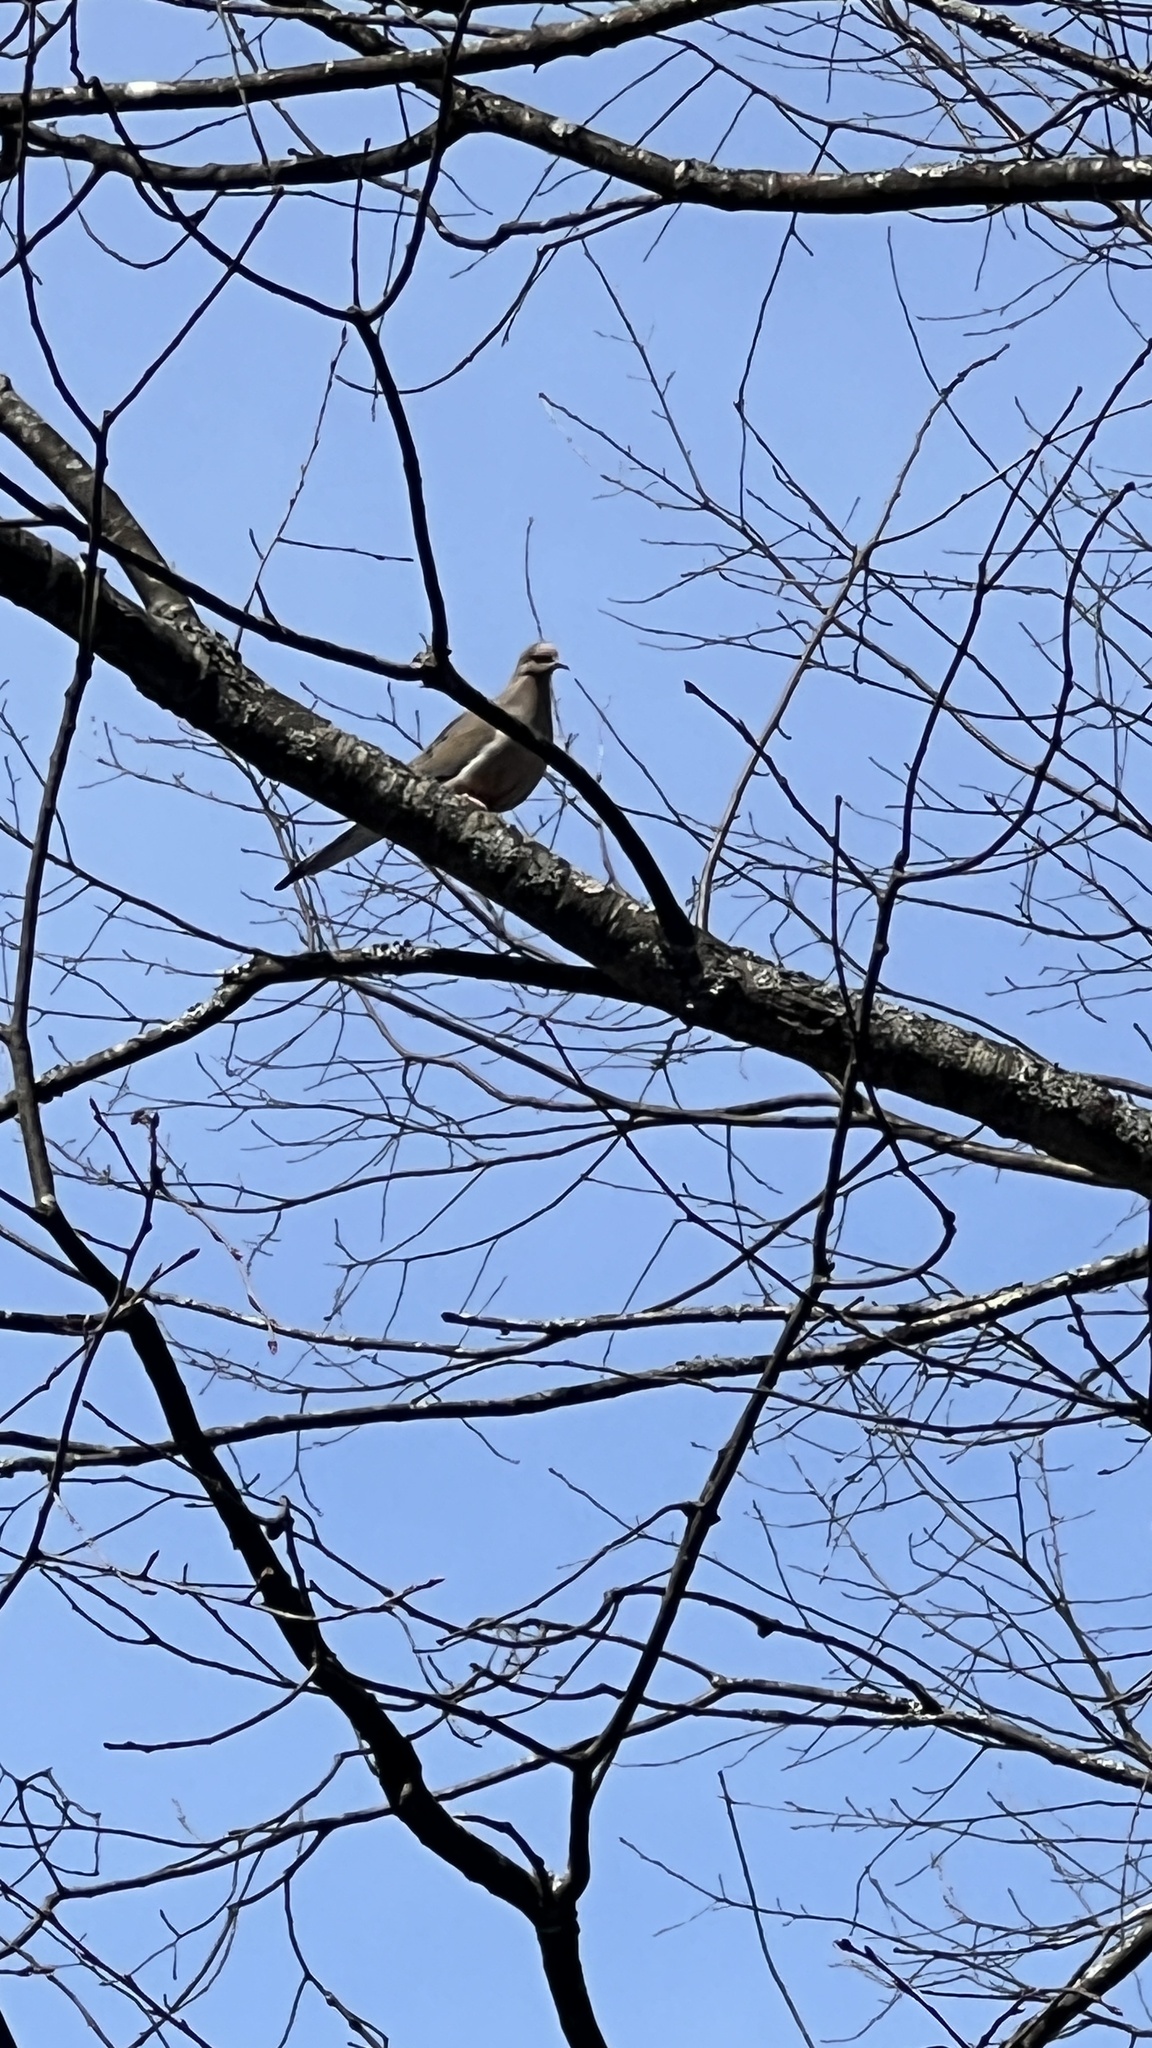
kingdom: Animalia
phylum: Chordata
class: Aves
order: Columbiformes
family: Columbidae
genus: Zenaida
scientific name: Zenaida macroura
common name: Mourning dove
